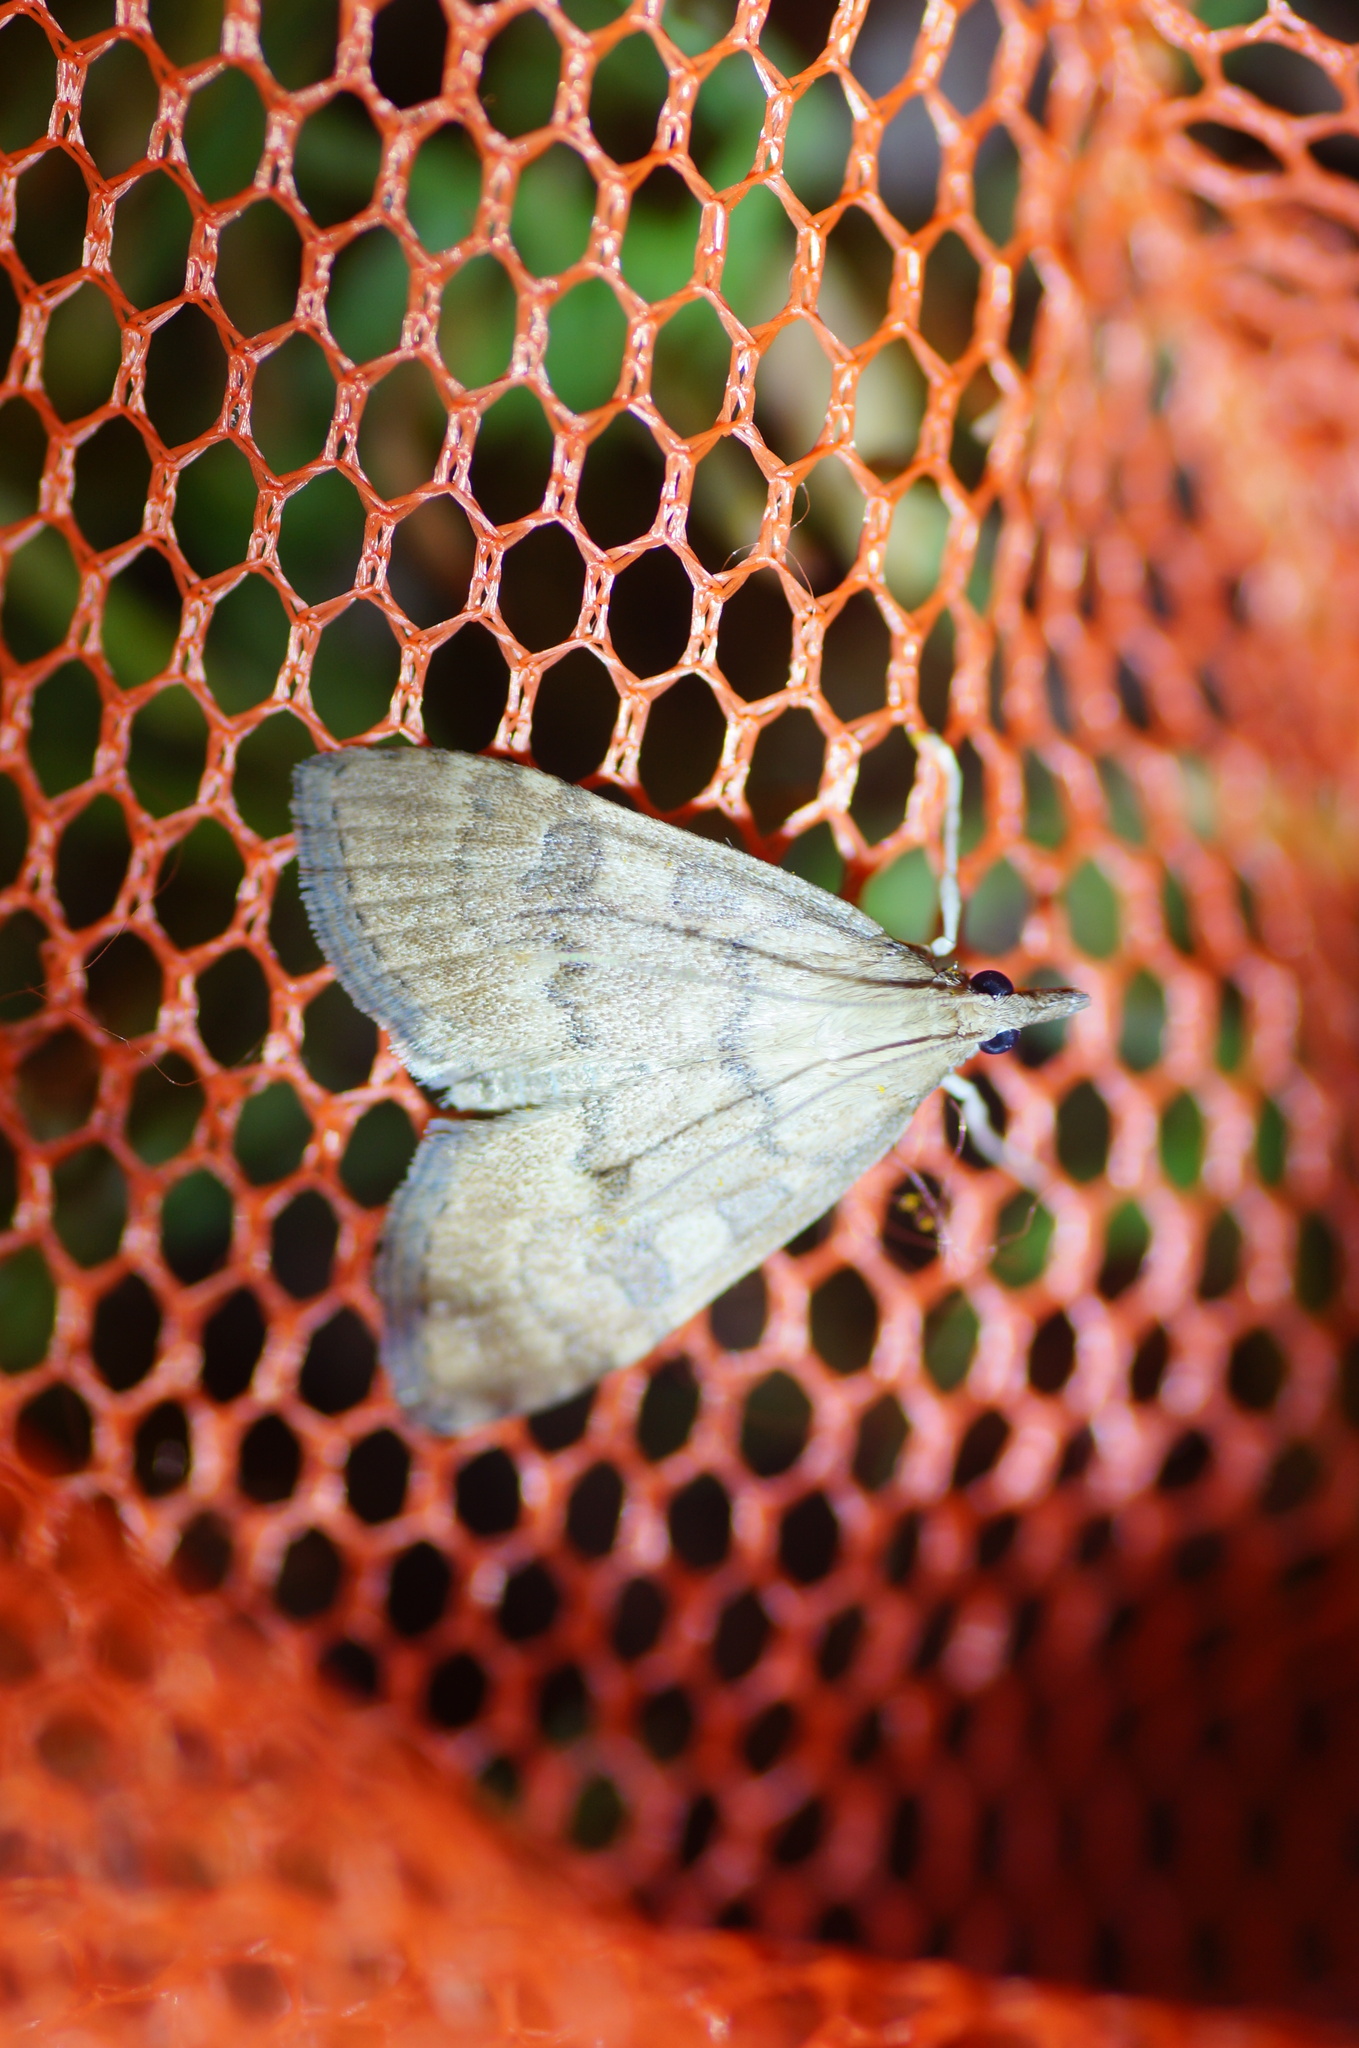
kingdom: Animalia
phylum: Arthropoda
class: Insecta
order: Lepidoptera
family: Crambidae
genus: Udea
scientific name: Udea fulvalis
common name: Fulvous pearl
